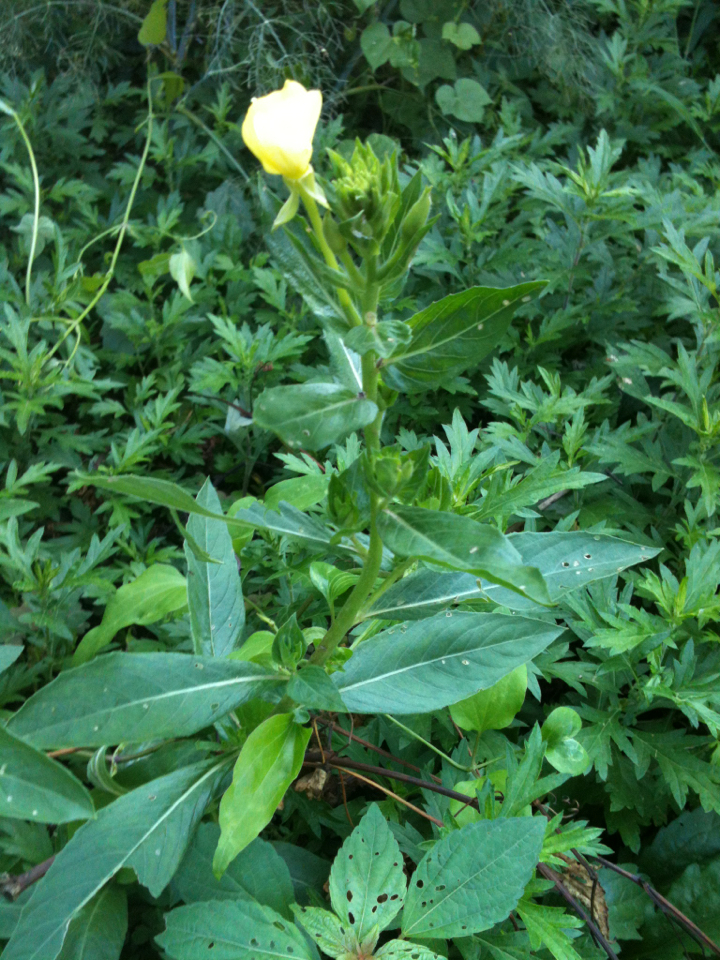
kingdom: Plantae
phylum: Tracheophyta
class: Magnoliopsida
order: Myrtales
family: Onagraceae
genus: Oenothera
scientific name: Oenothera biennis
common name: Common evening-primrose
